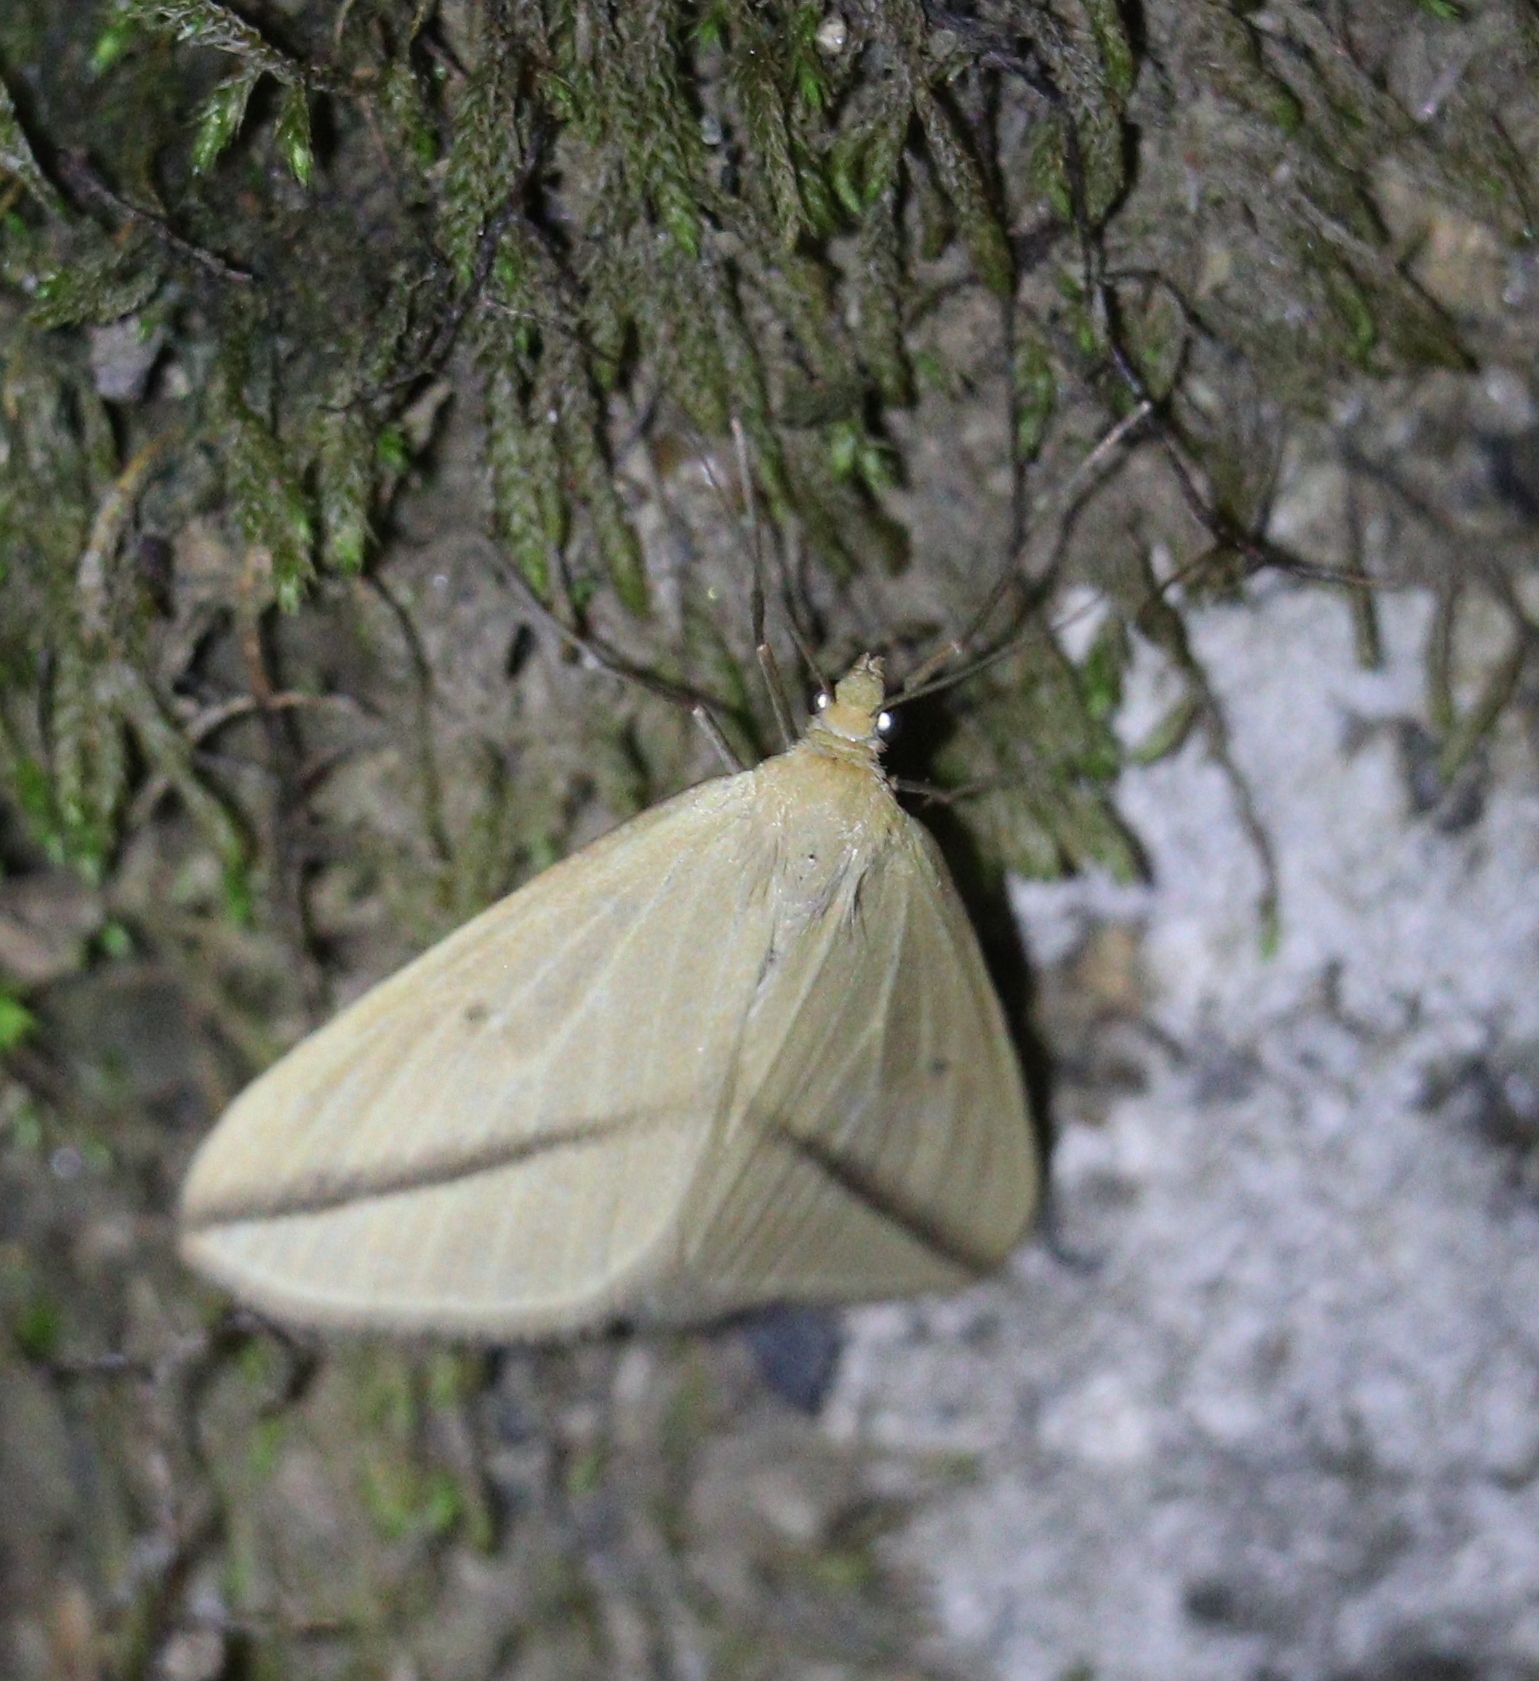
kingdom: Animalia
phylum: Arthropoda
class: Insecta
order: Lepidoptera
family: Geometridae
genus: Rhodometra
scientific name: Rhodometra sacraria
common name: Vestal
